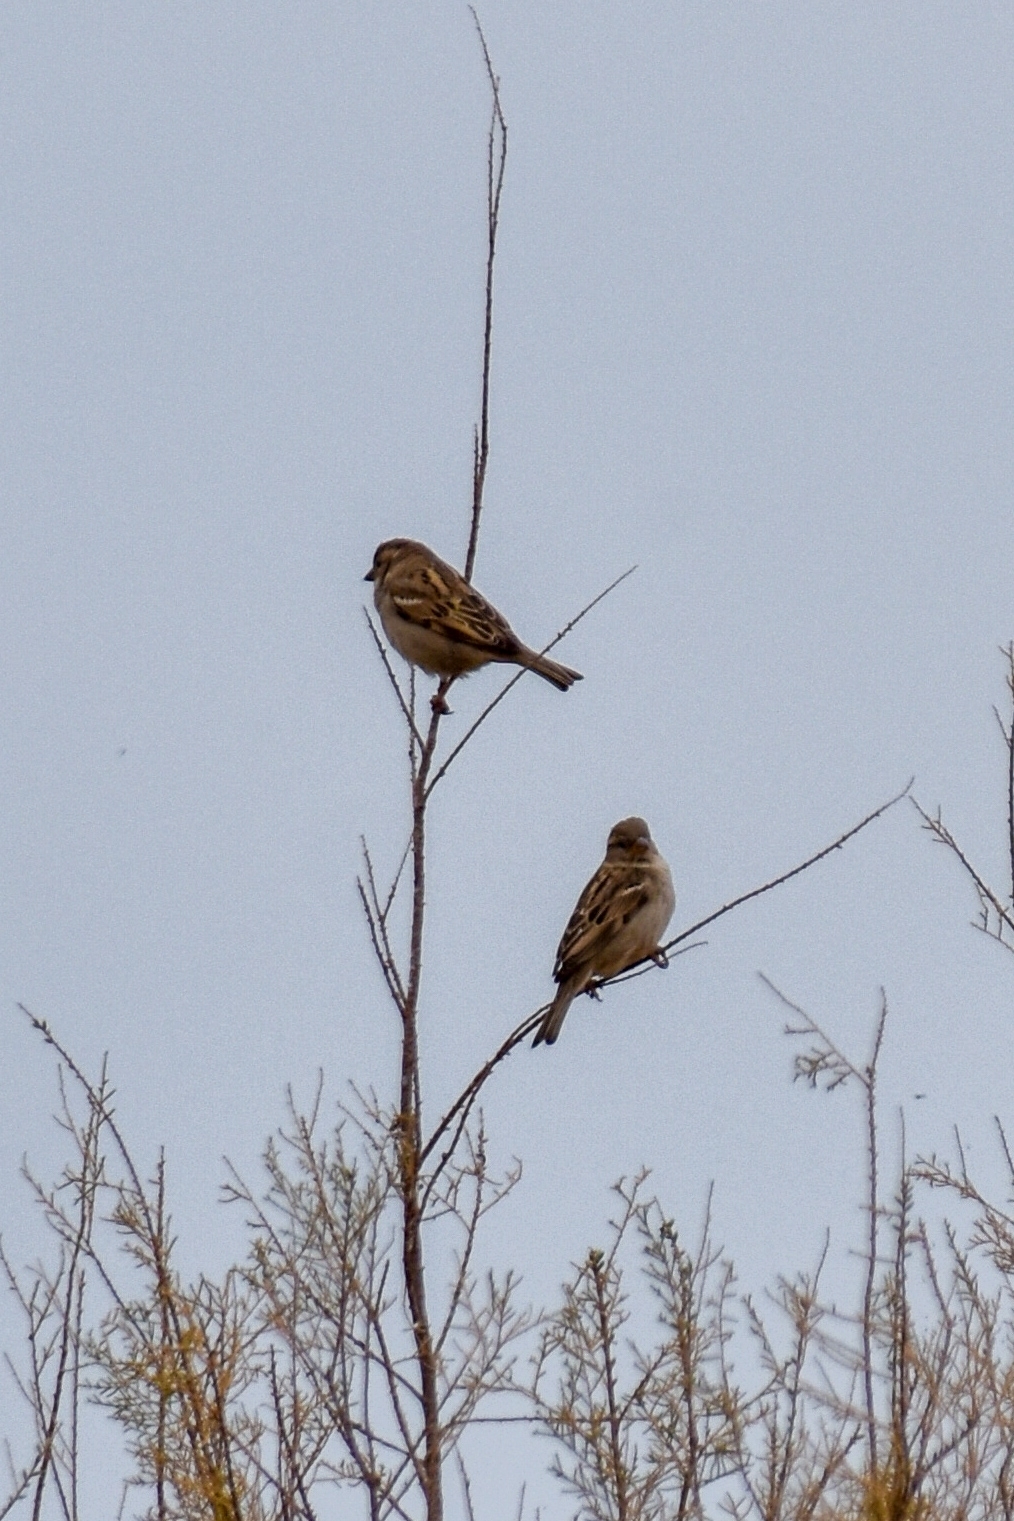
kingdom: Animalia
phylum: Chordata
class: Aves
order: Passeriformes
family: Passeridae
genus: Passer
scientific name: Passer domesticus
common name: House sparrow
